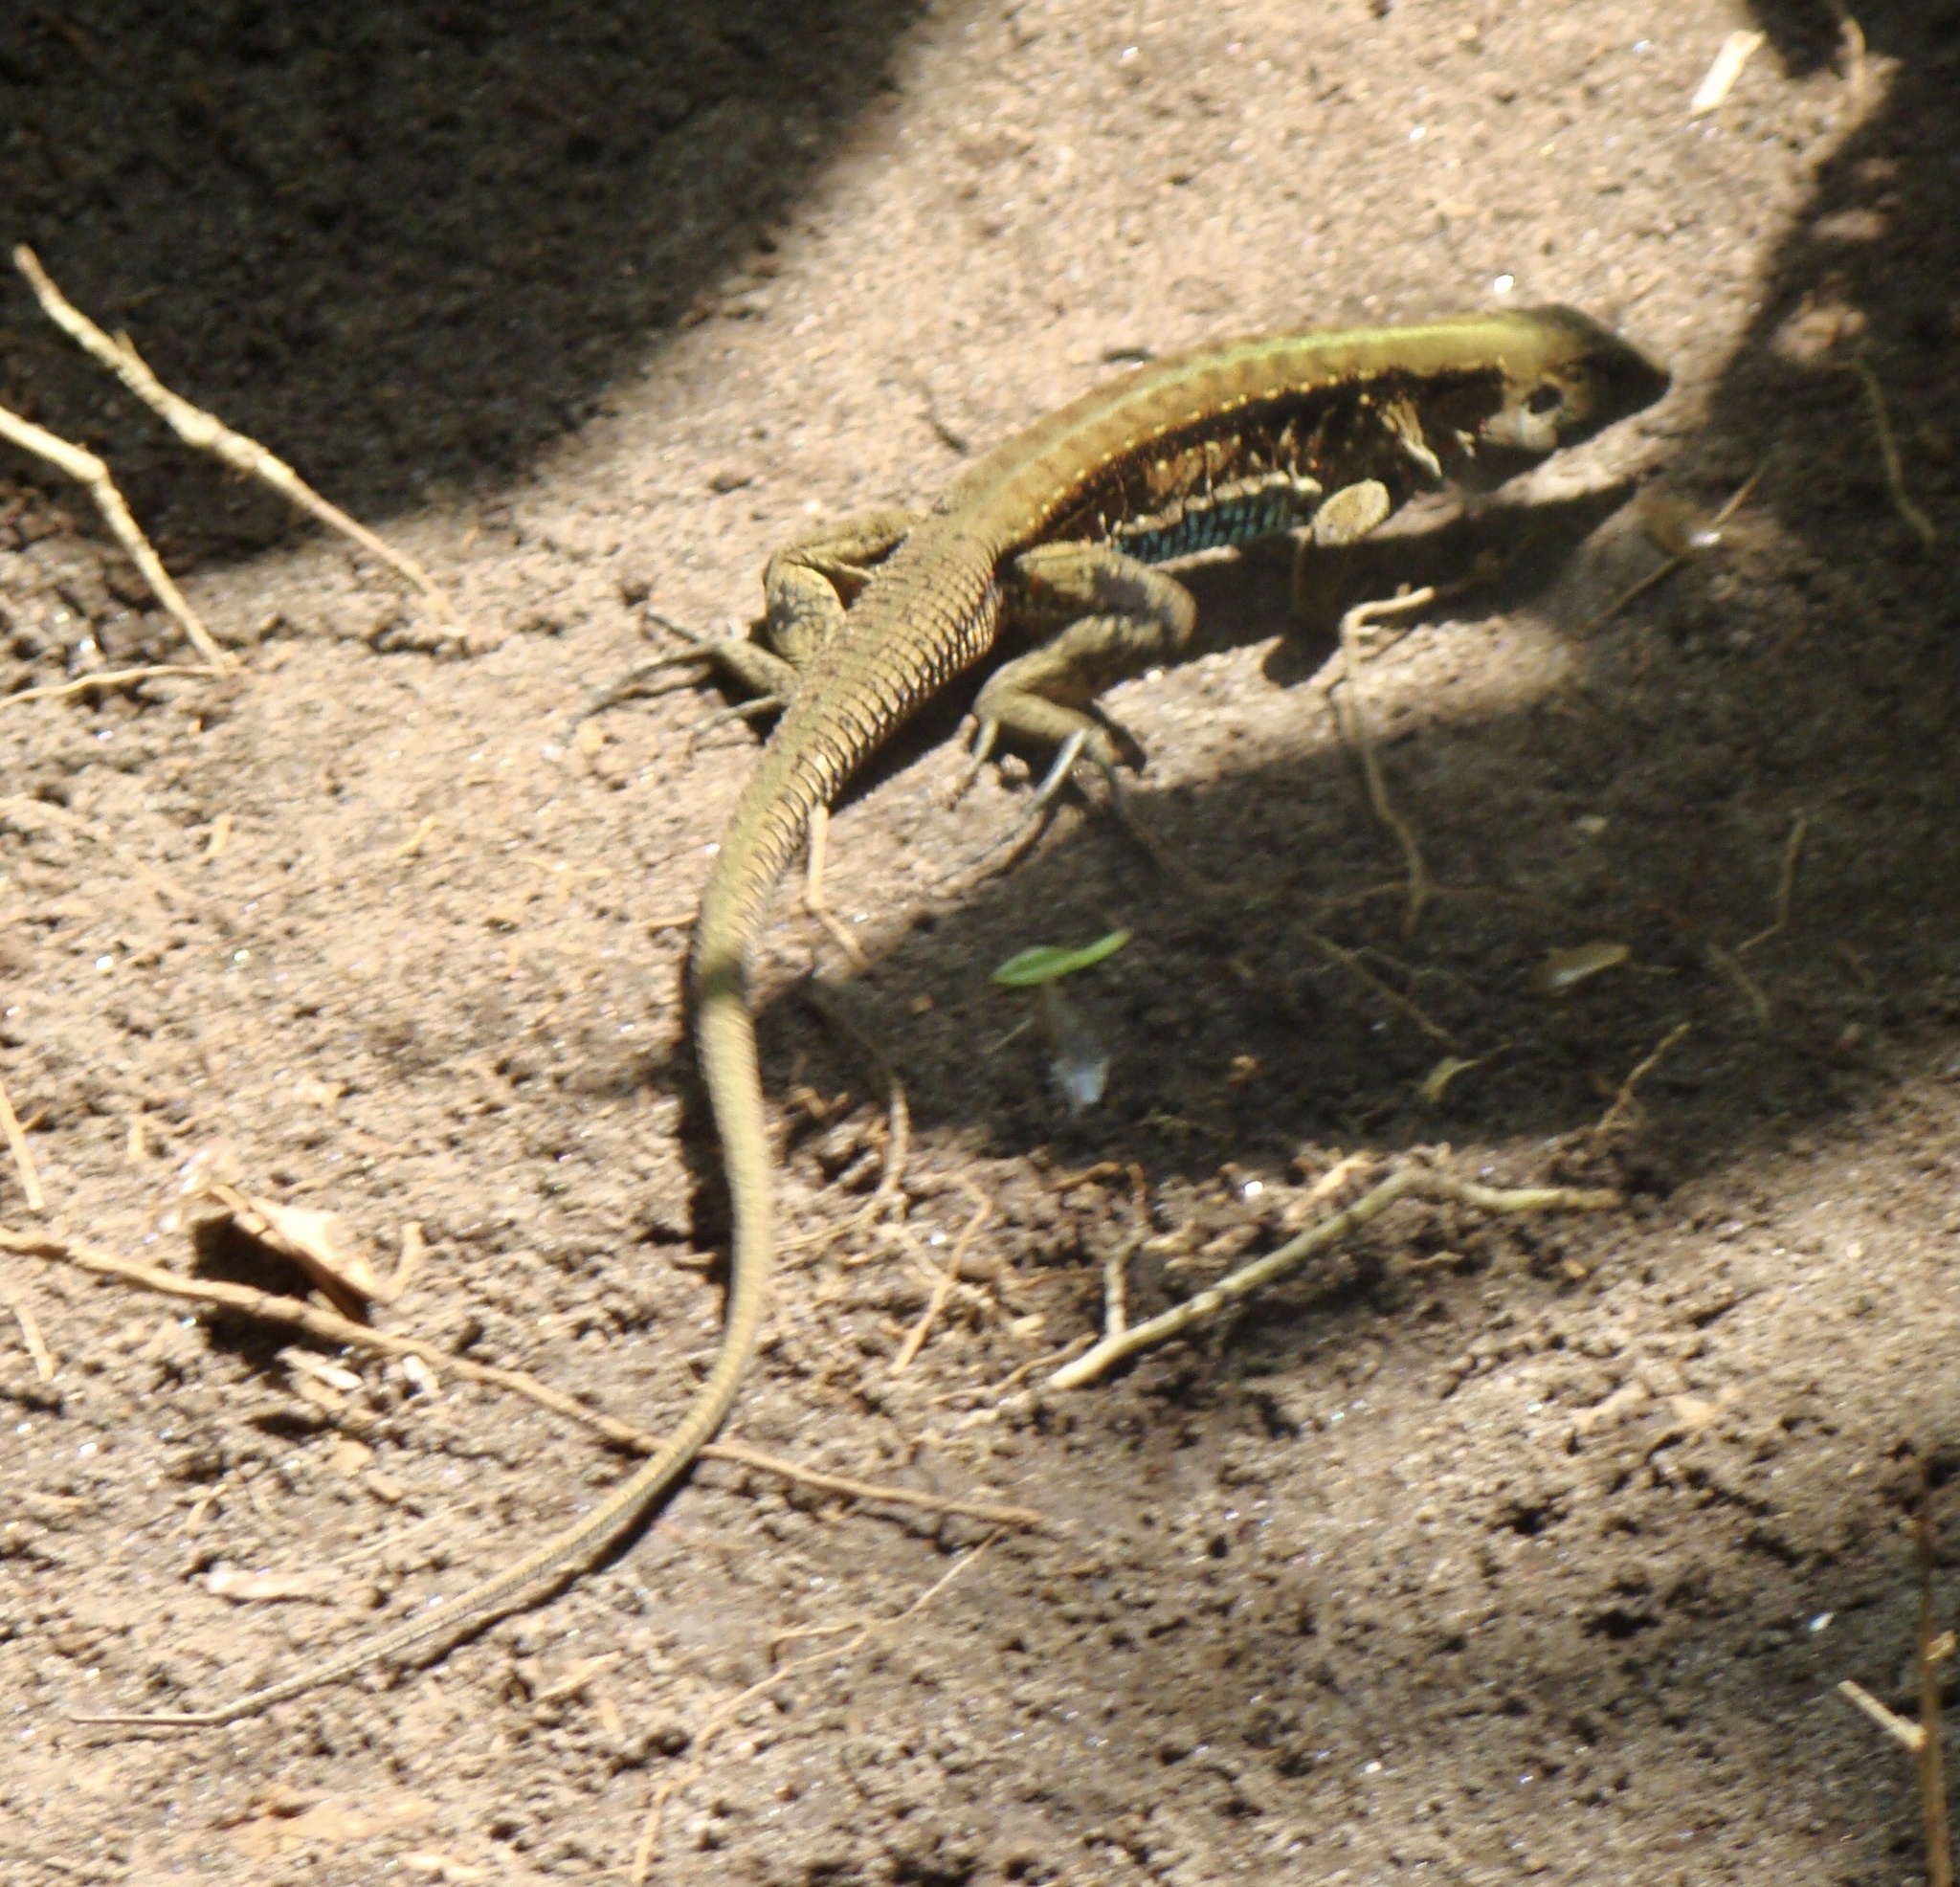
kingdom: Animalia
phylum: Chordata
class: Squamata
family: Teiidae
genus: Holcosus
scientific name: Holcosus festivus
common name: Middle american ameiva
